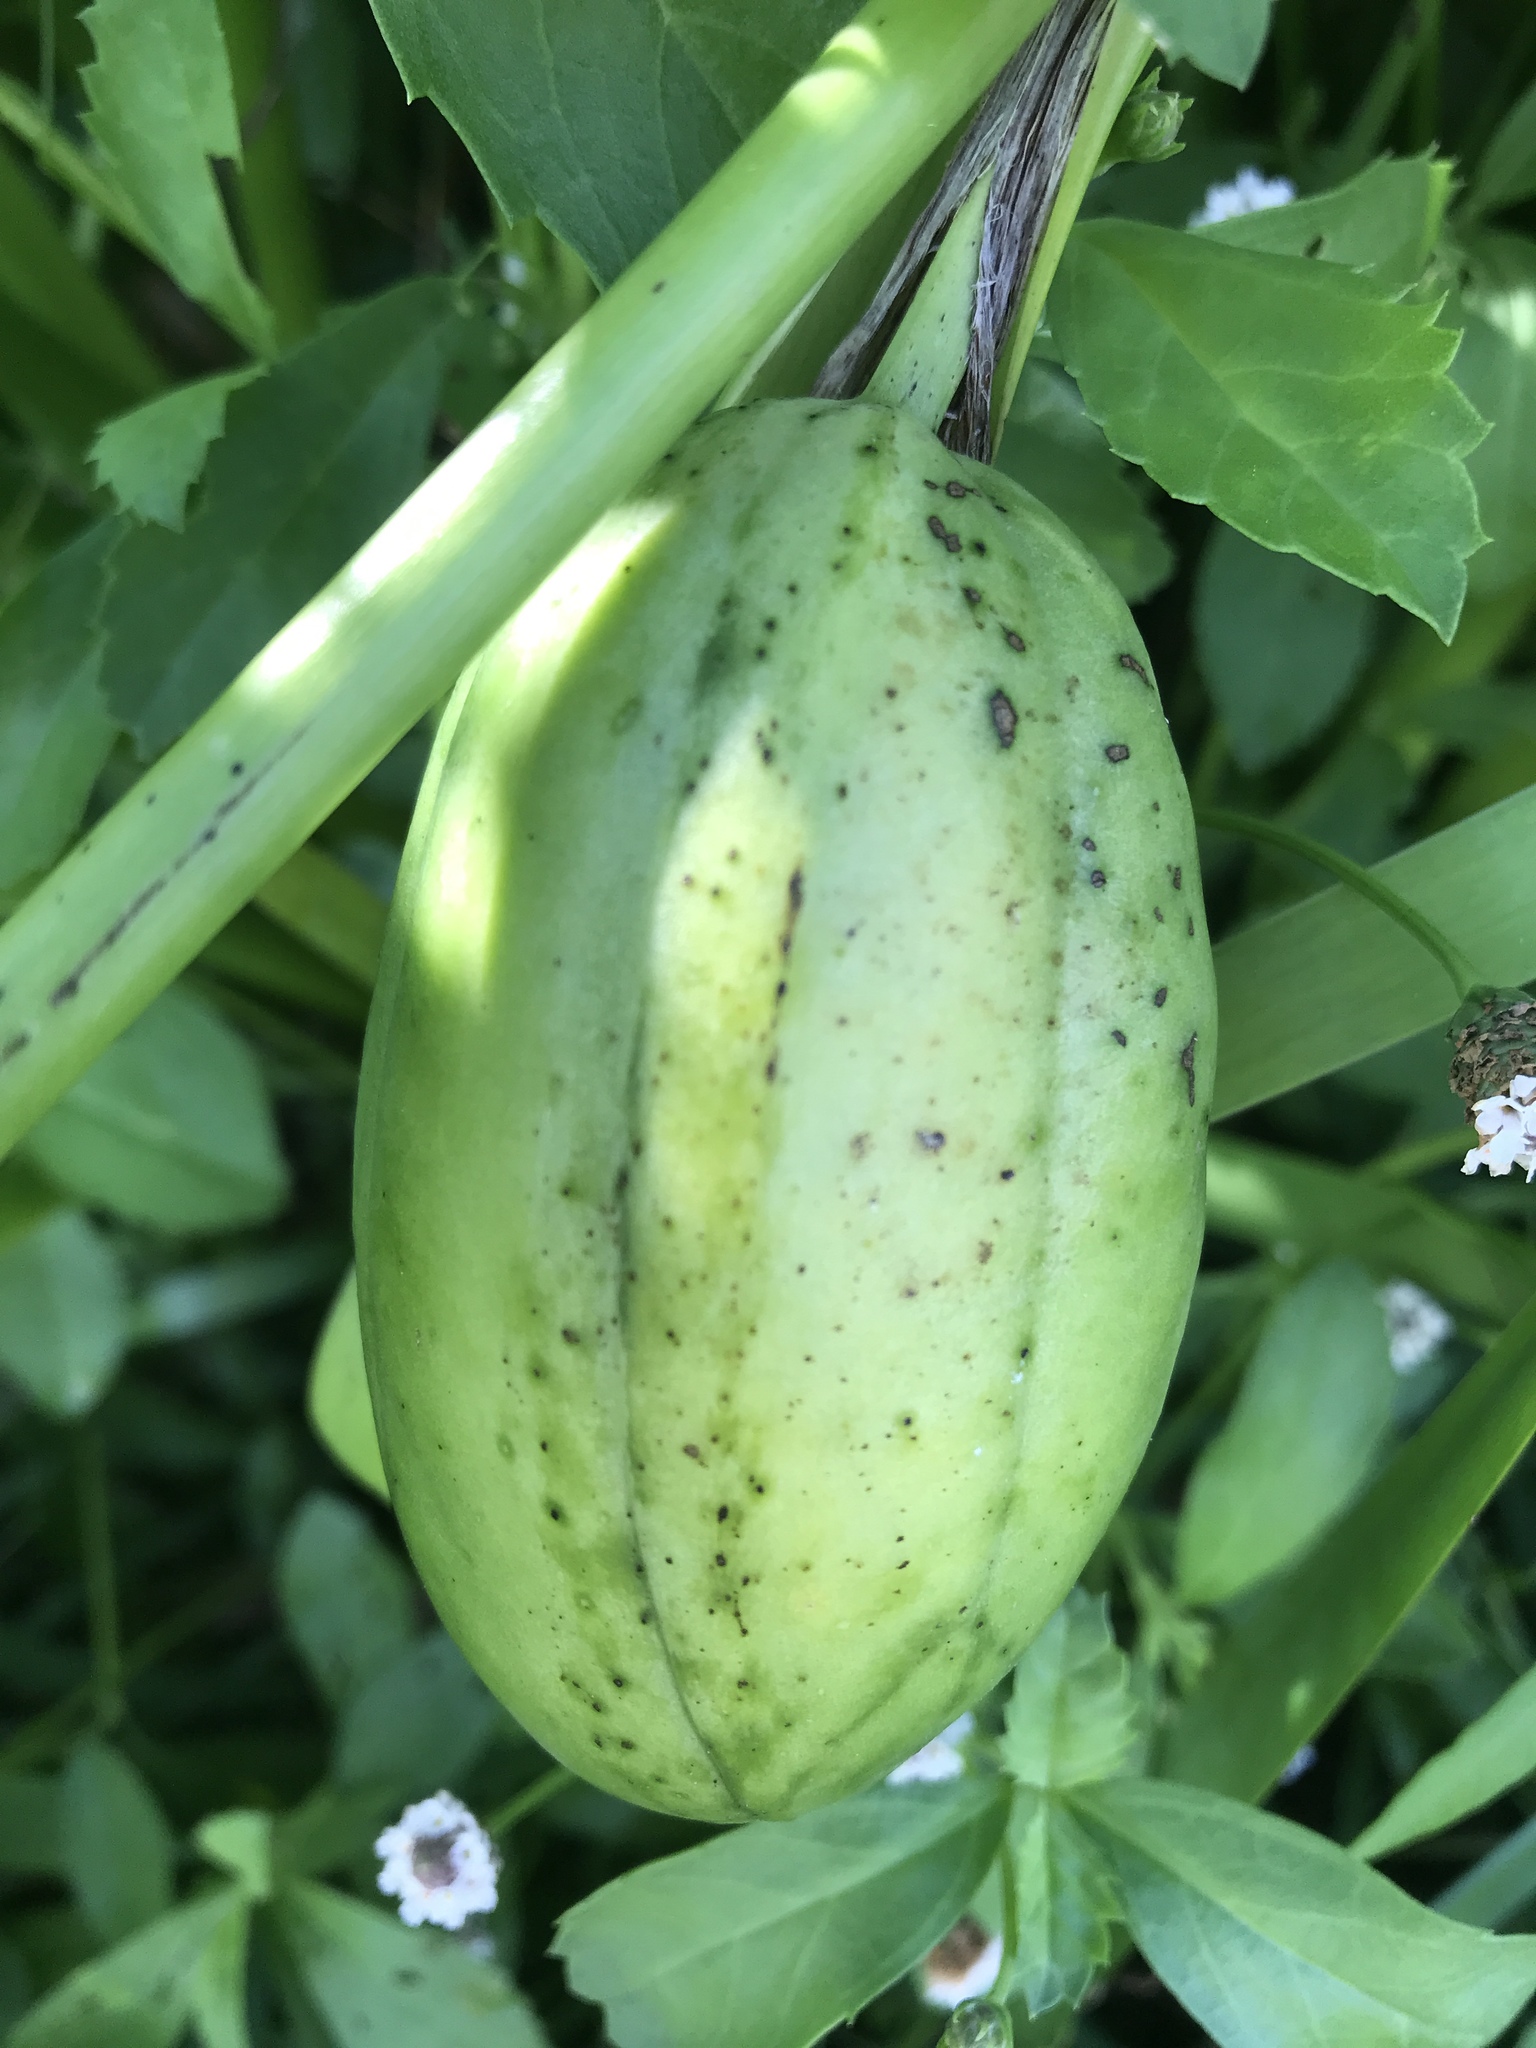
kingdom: Plantae
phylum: Tracheophyta
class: Liliopsida
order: Asparagales
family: Iridaceae
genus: Iris
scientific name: Iris pseudacorus
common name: Yellow flag
